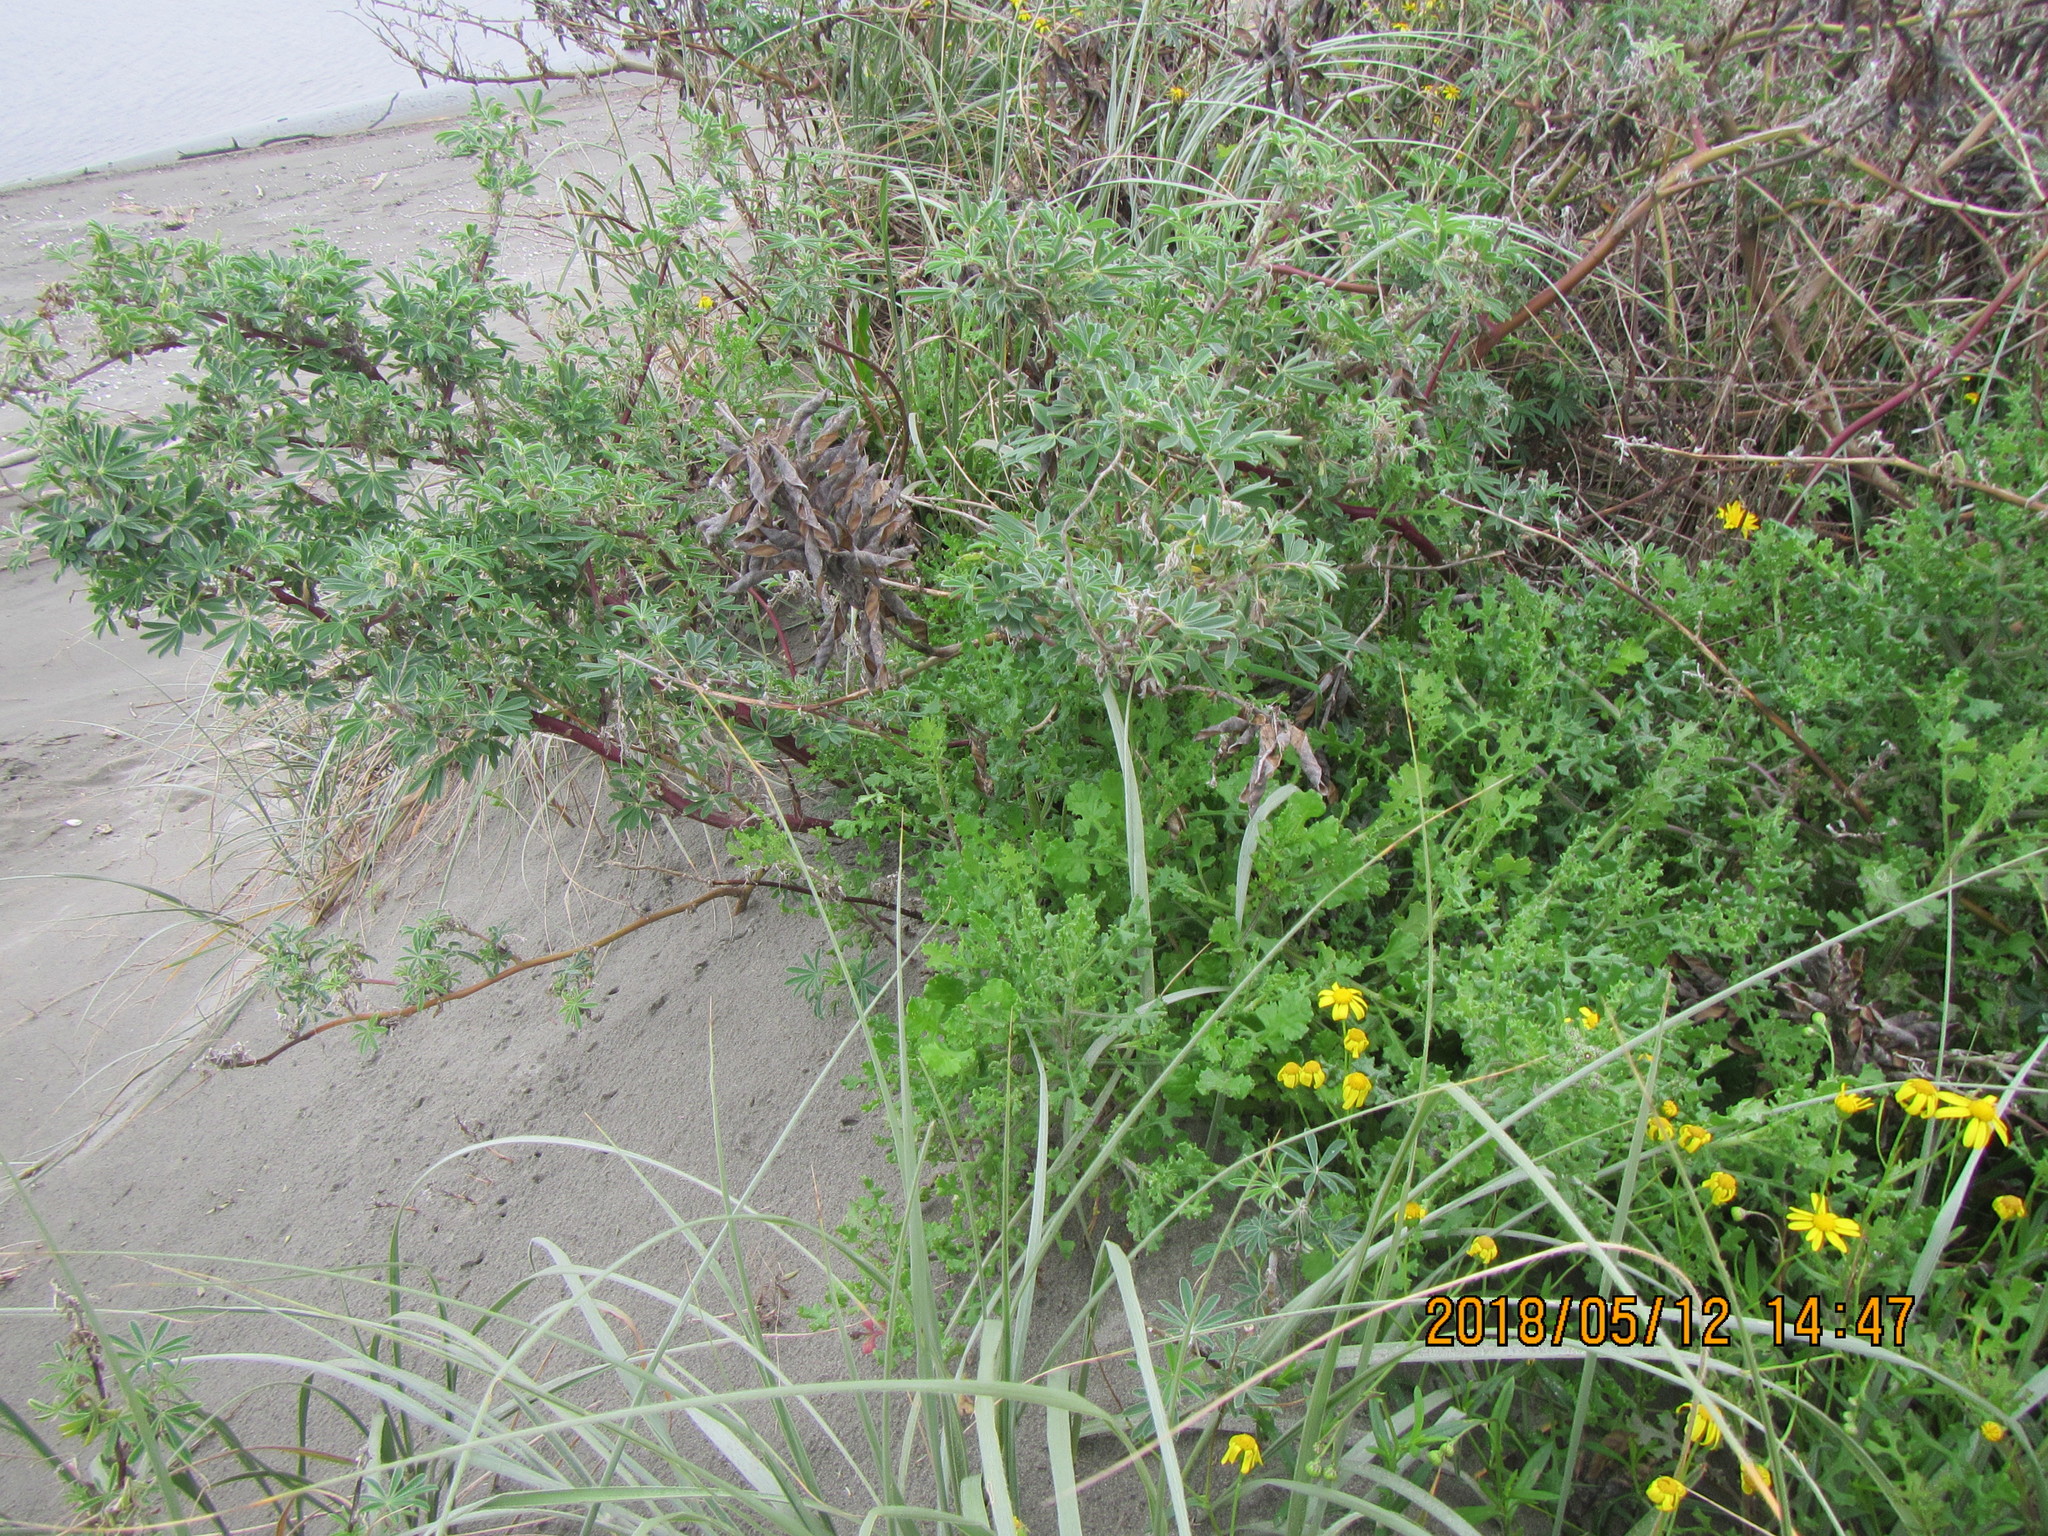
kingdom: Plantae
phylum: Tracheophyta
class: Magnoliopsida
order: Asterales
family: Asteraceae
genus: Senecio
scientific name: Senecio skirrhodon
